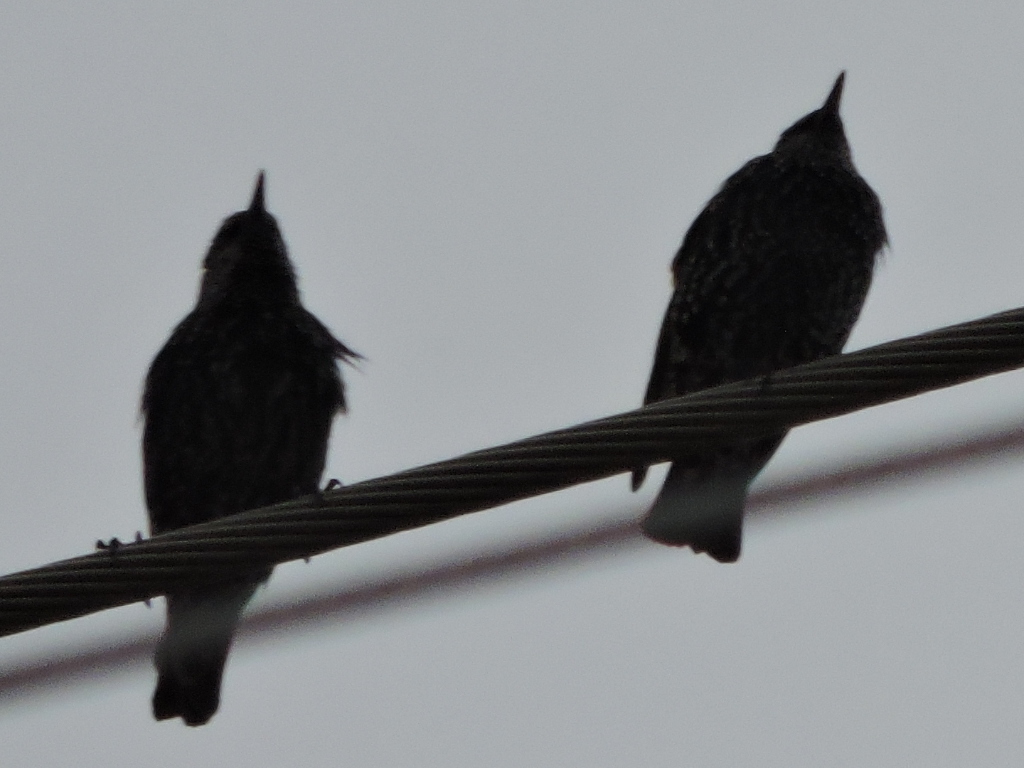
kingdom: Animalia
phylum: Chordata
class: Aves
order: Passeriformes
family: Sturnidae
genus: Sturnus
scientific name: Sturnus vulgaris
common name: Common starling
